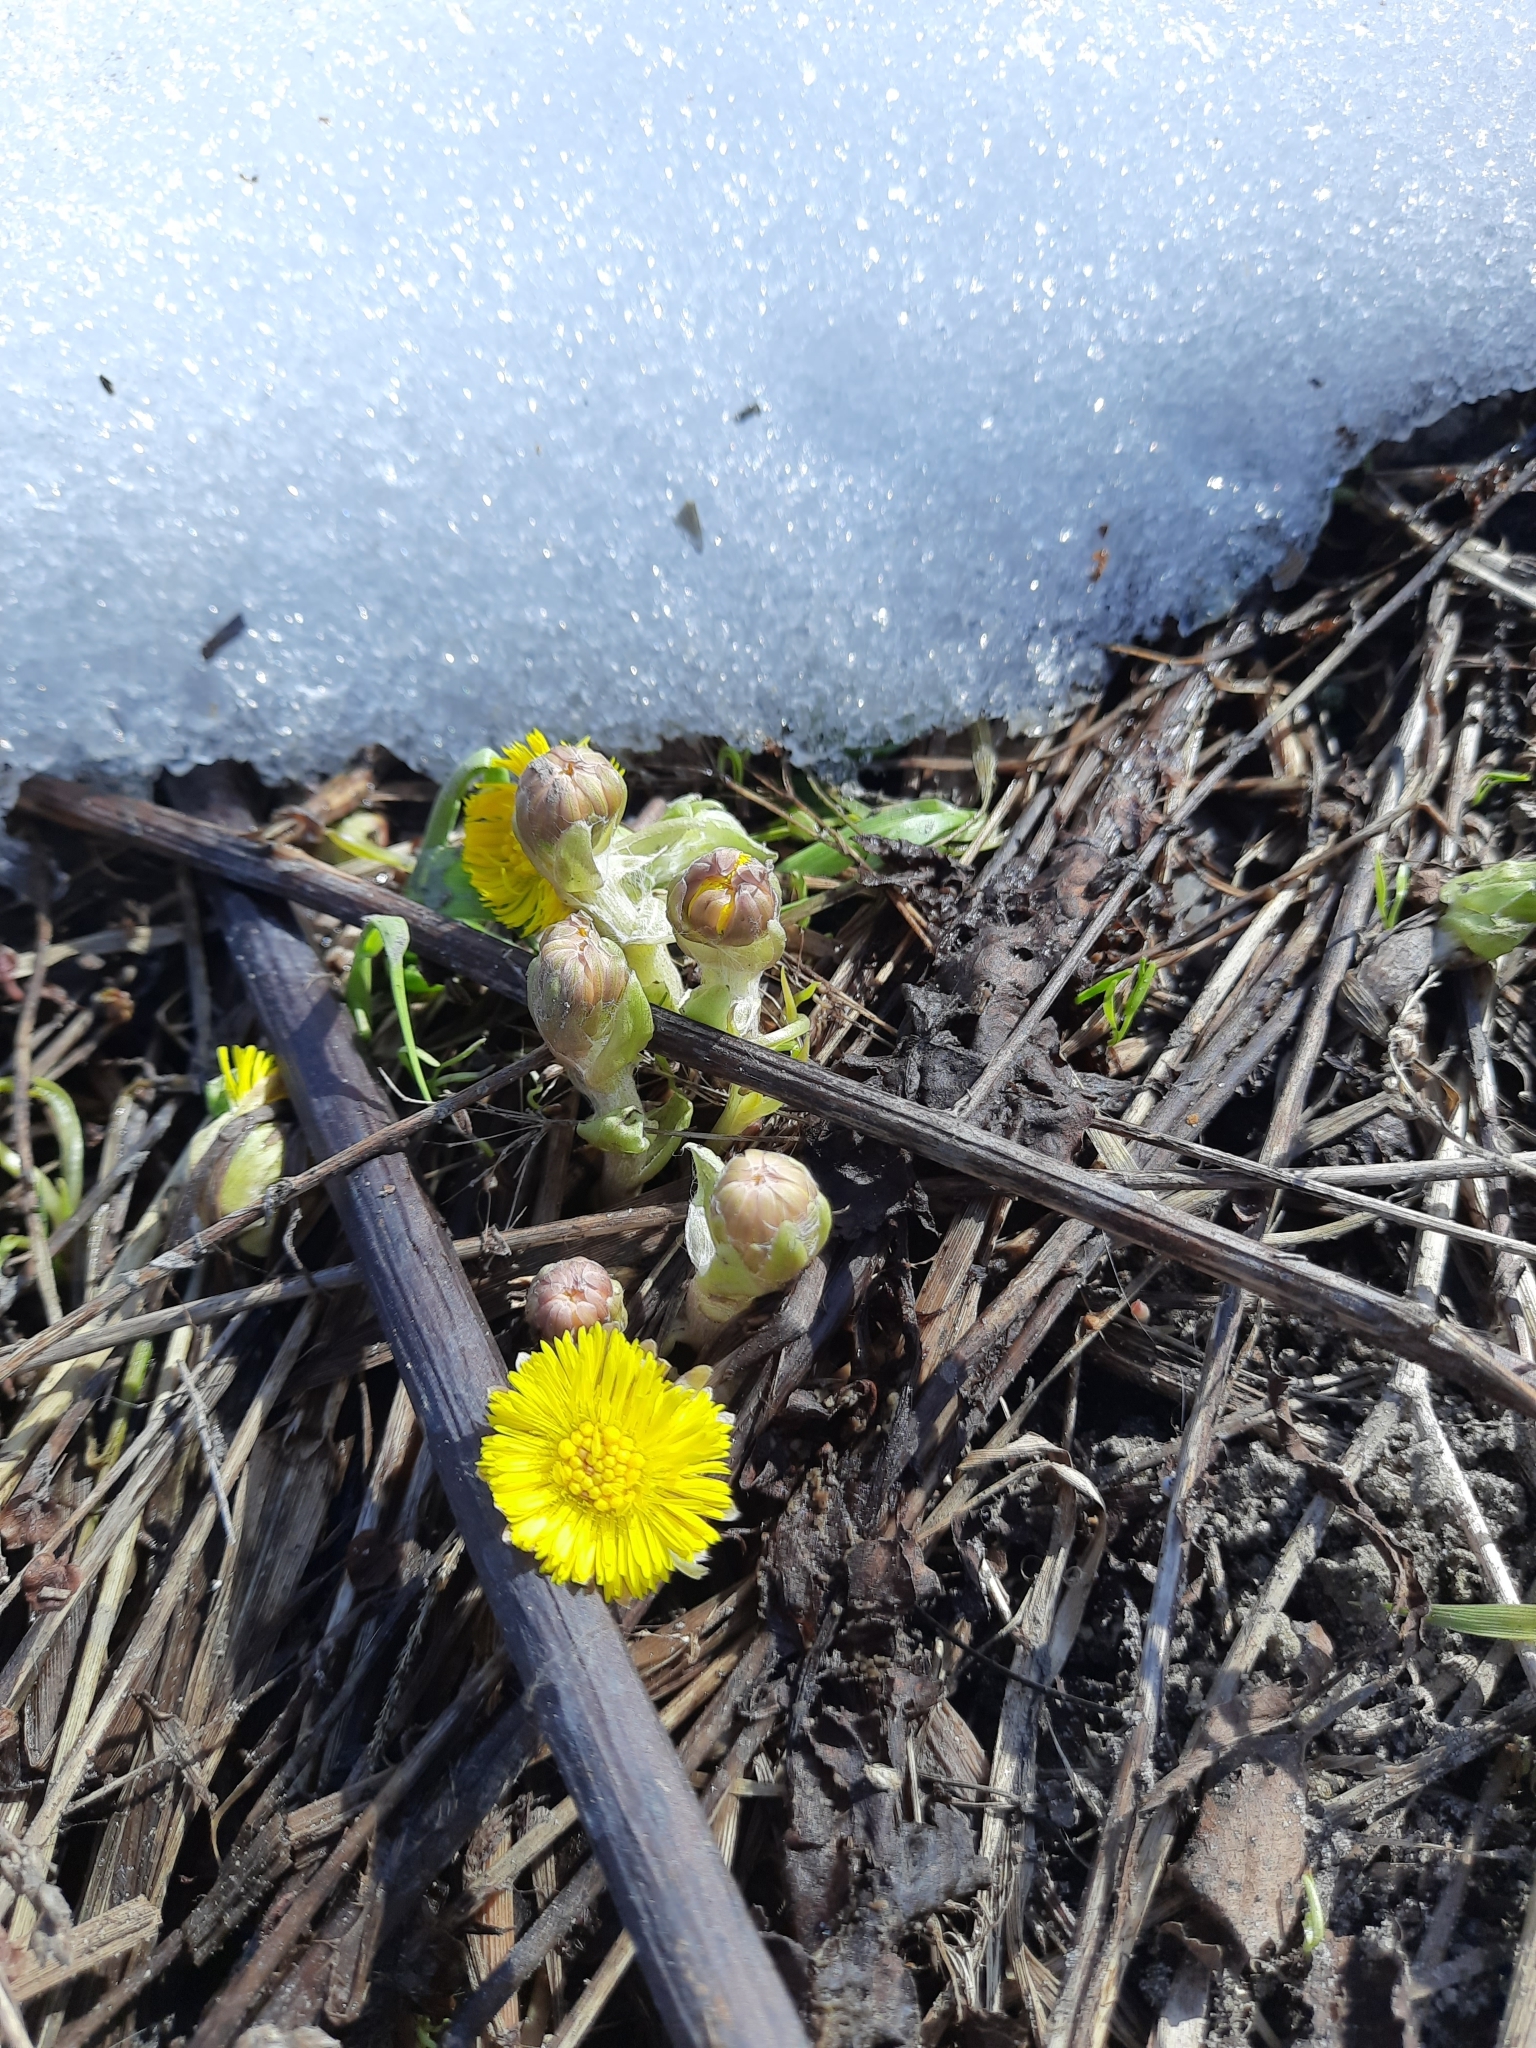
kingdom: Plantae
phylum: Tracheophyta
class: Magnoliopsida
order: Asterales
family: Asteraceae
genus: Tussilago
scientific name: Tussilago farfara
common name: Coltsfoot
